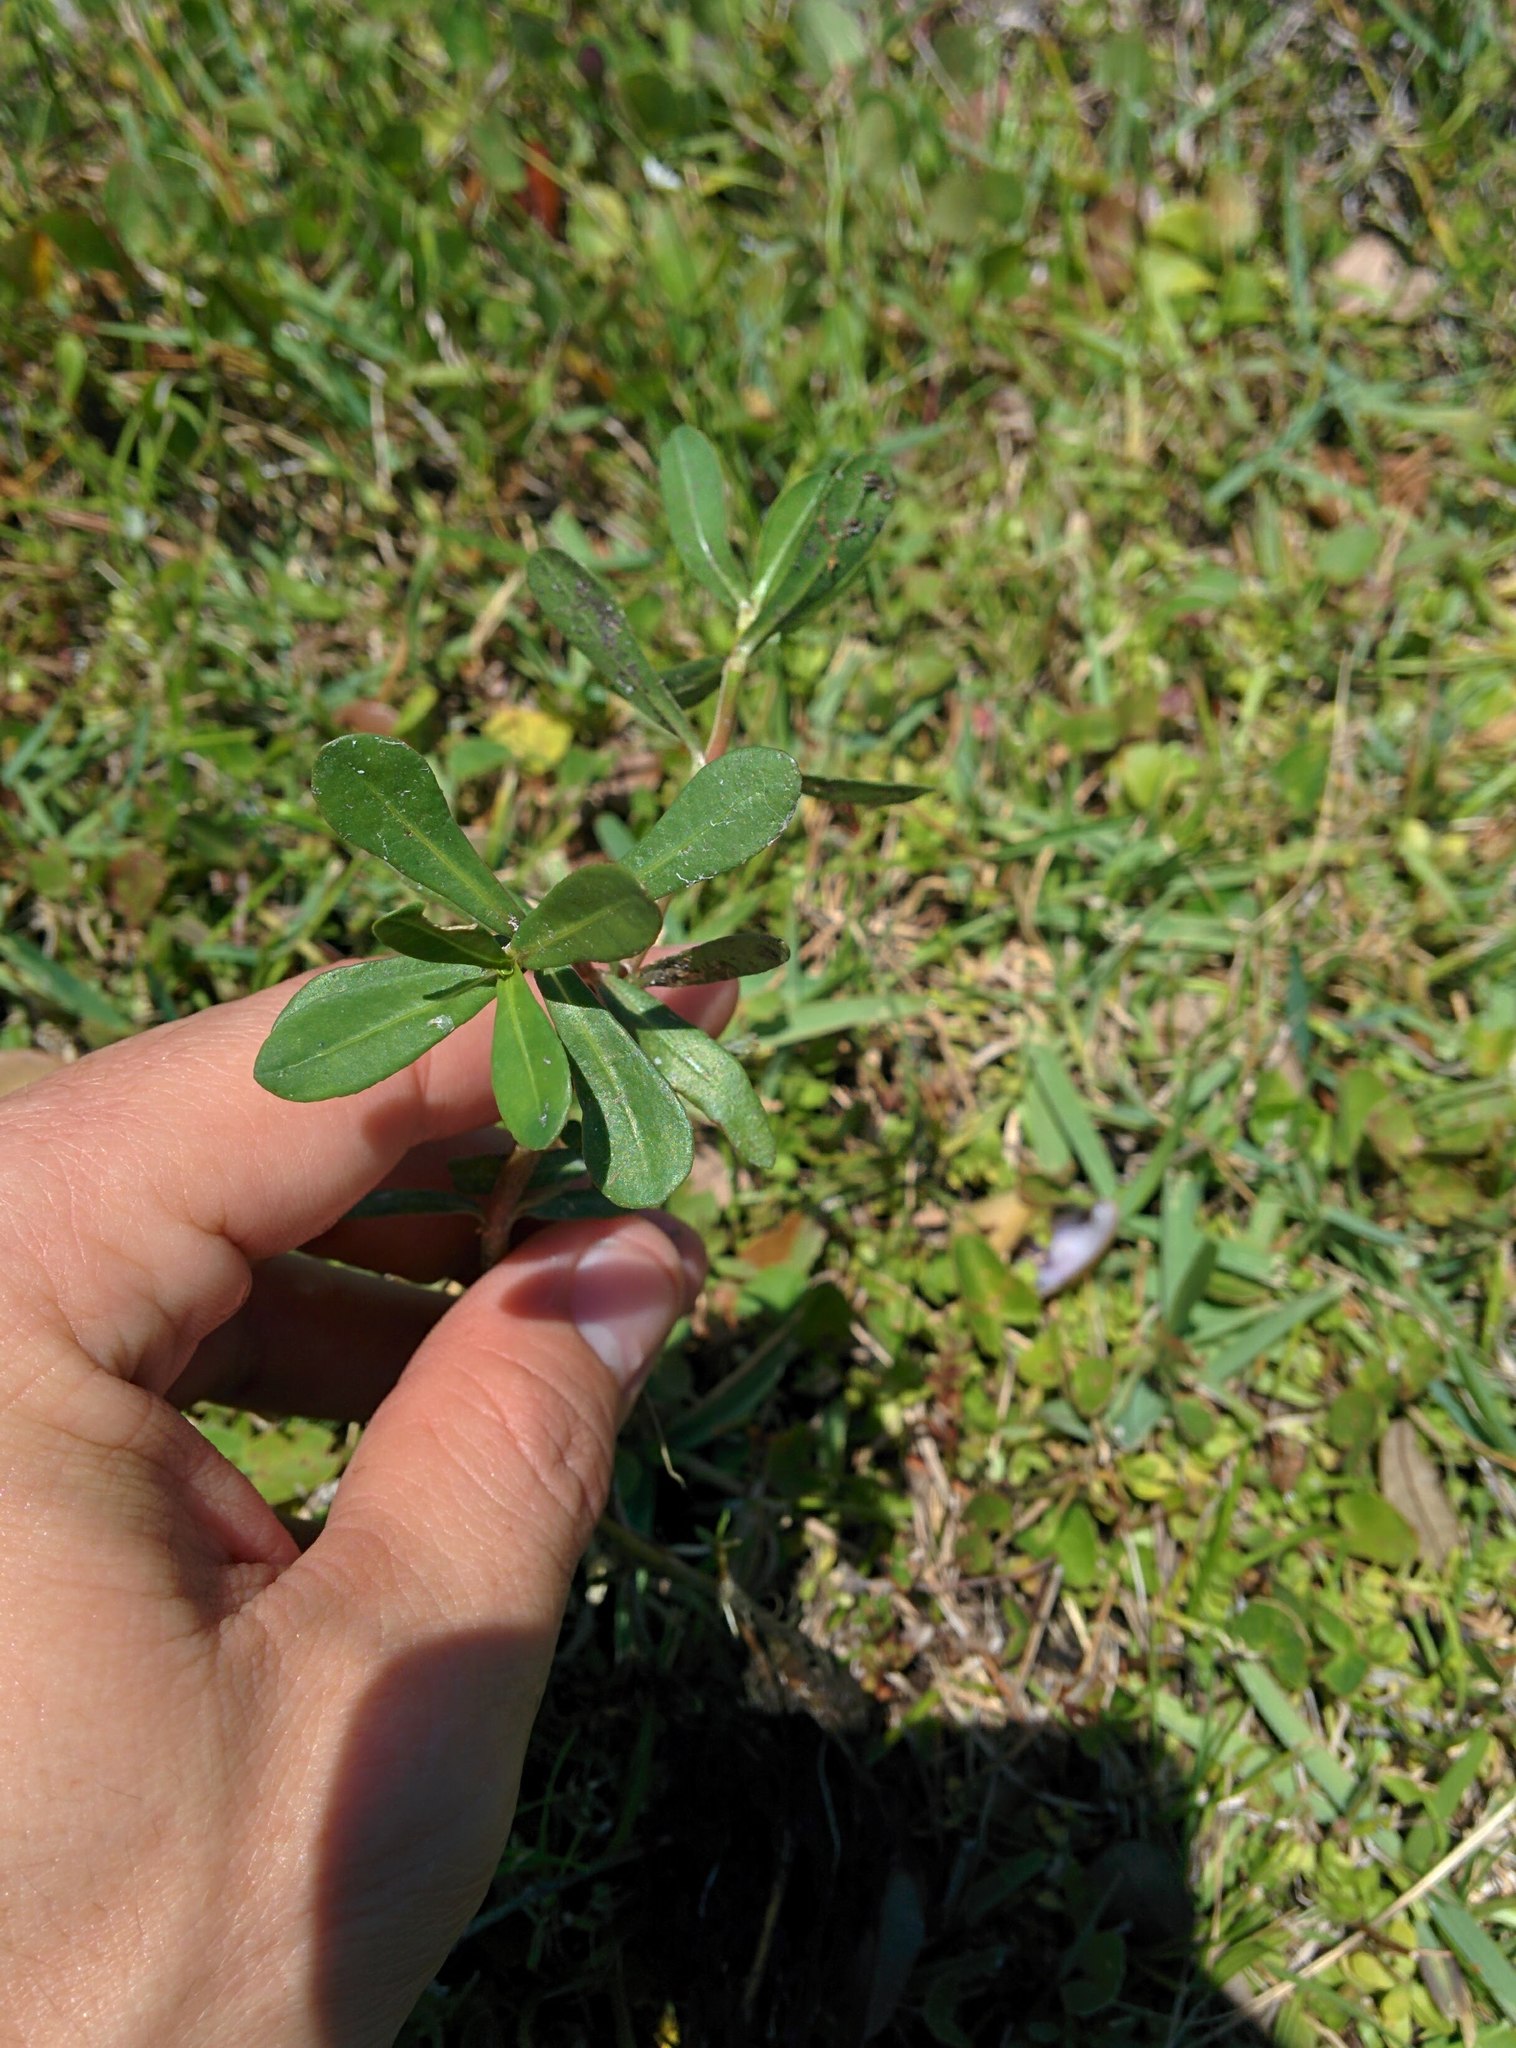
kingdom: Plantae
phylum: Tracheophyta
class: Magnoliopsida
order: Caryophyllales
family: Amaranthaceae
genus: Alternanthera
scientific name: Alternanthera philoxeroides
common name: Alligatorweed
